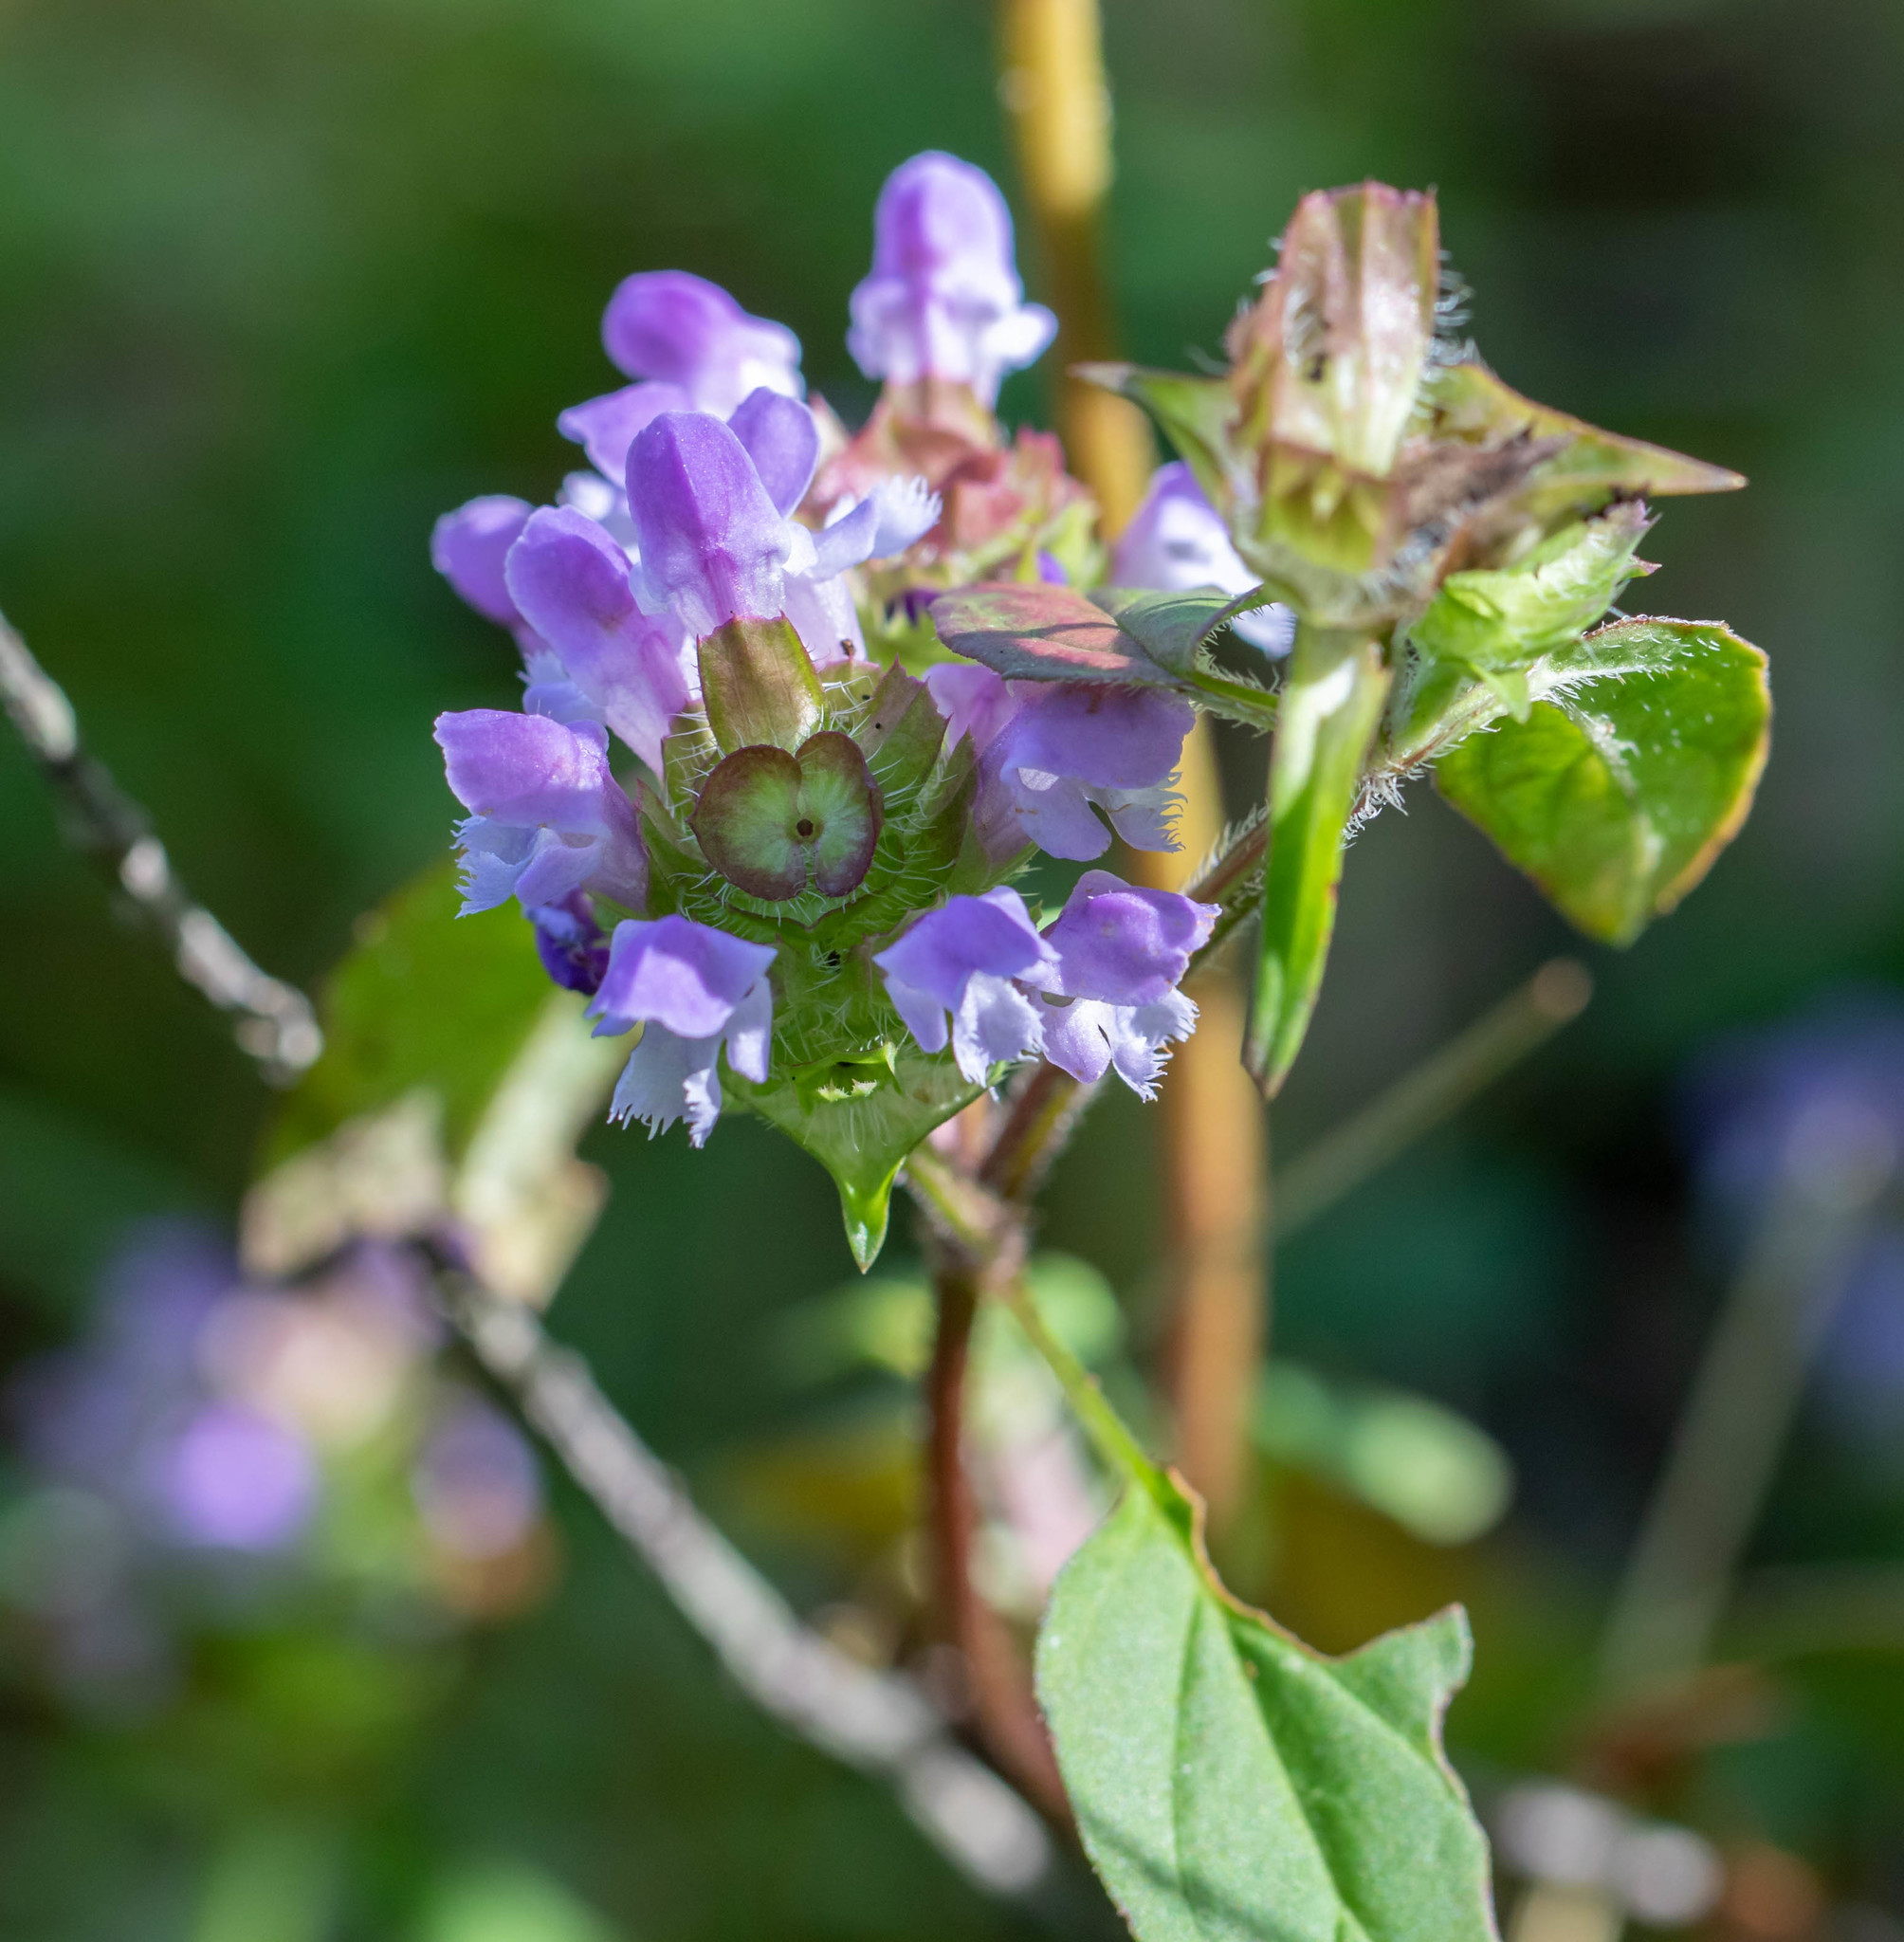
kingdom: Plantae
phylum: Tracheophyta
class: Magnoliopsida
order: Lamiales
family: Lamiaceae
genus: Prunella
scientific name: Prunella vulgaris
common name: Heal-all
